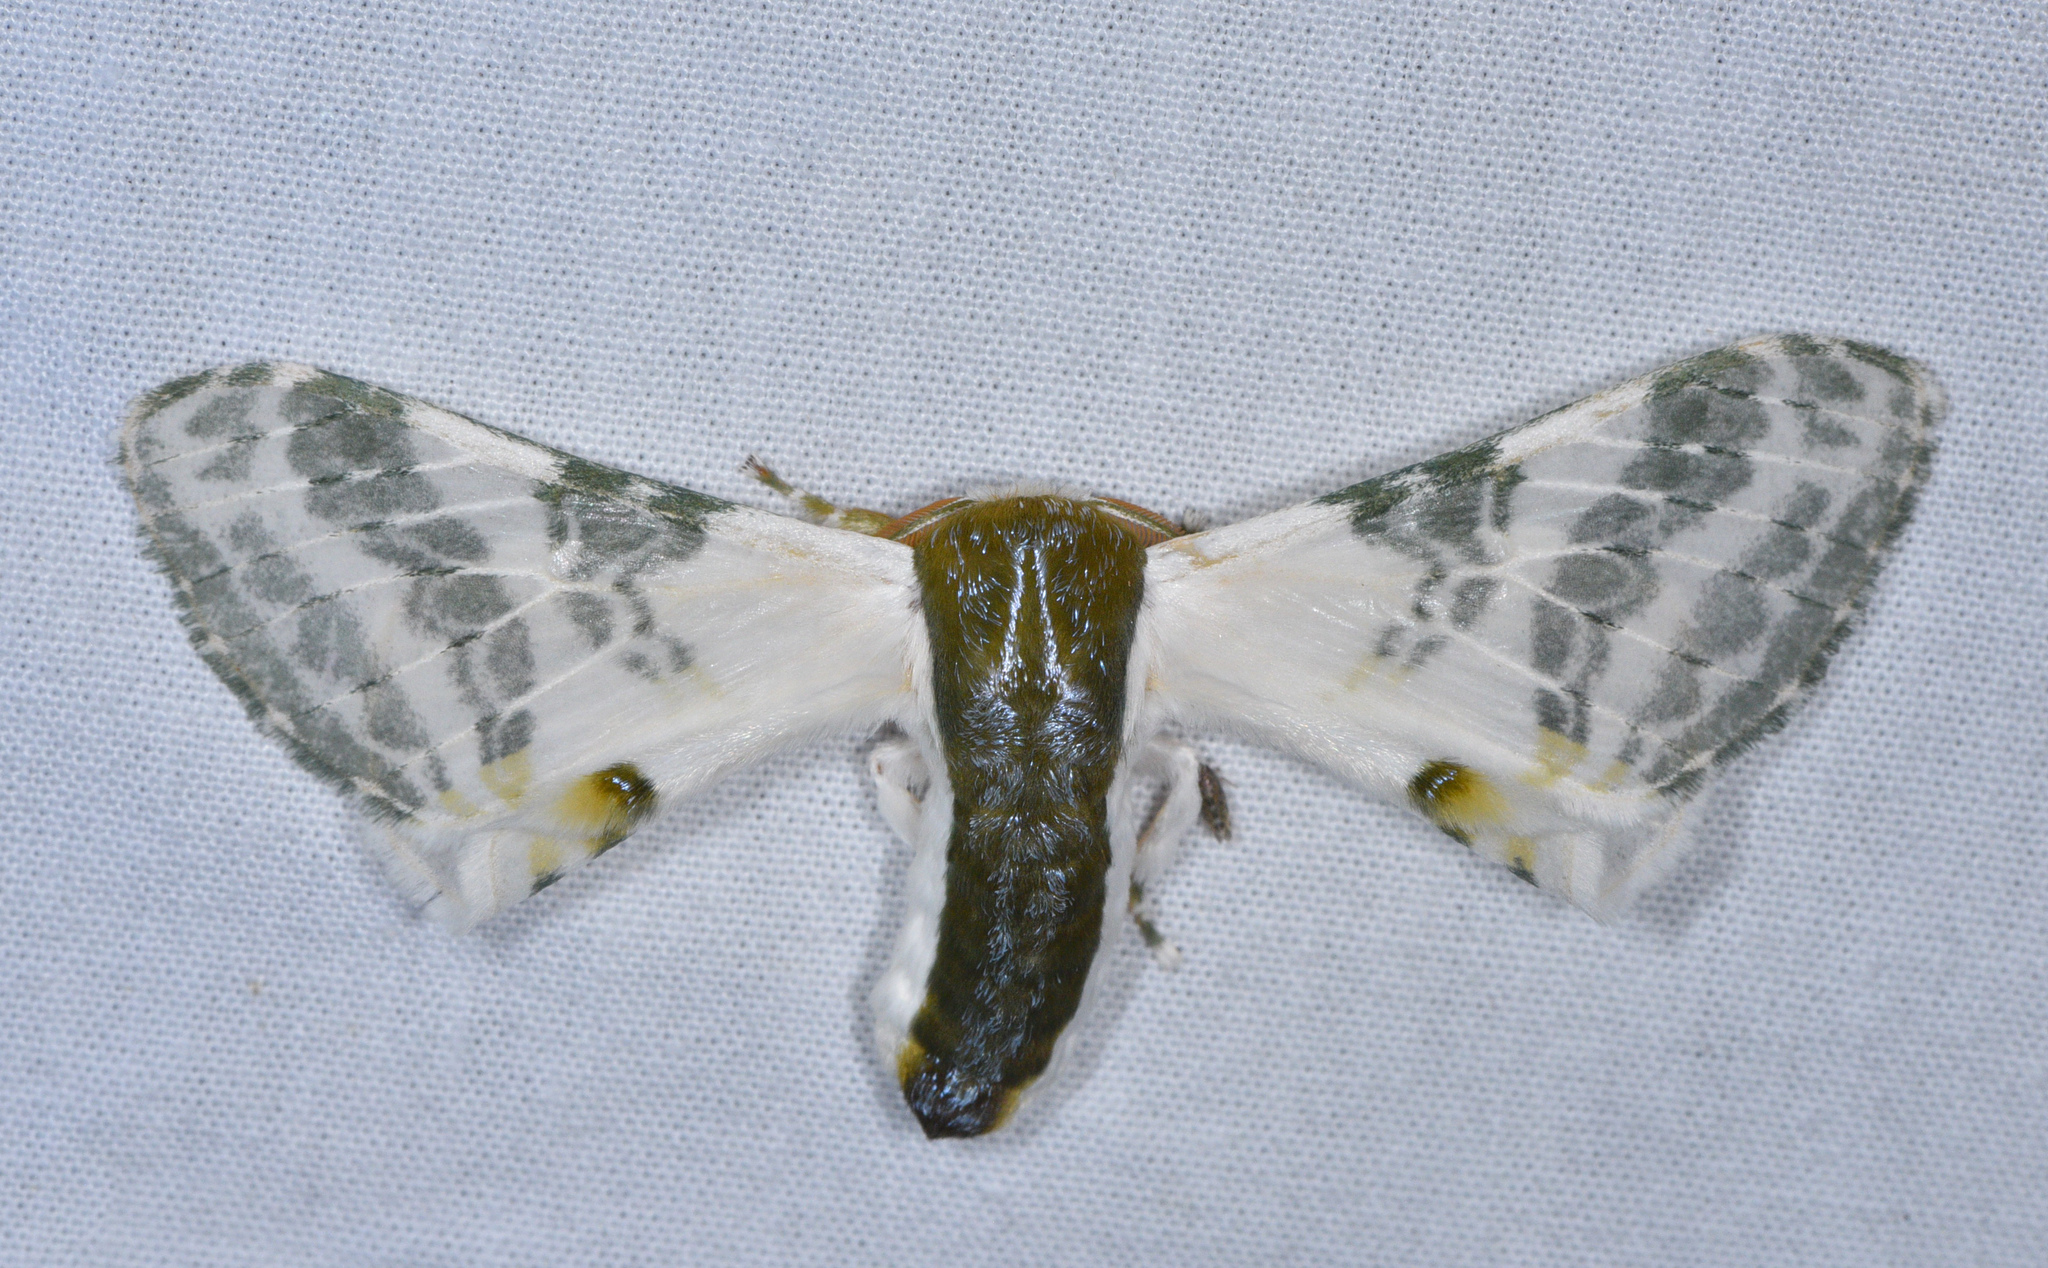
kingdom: Animalia
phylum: Arthropoda
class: Insecta
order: Lepidoptera
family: Bombycidae
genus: Colla
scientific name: Colla rhodope
